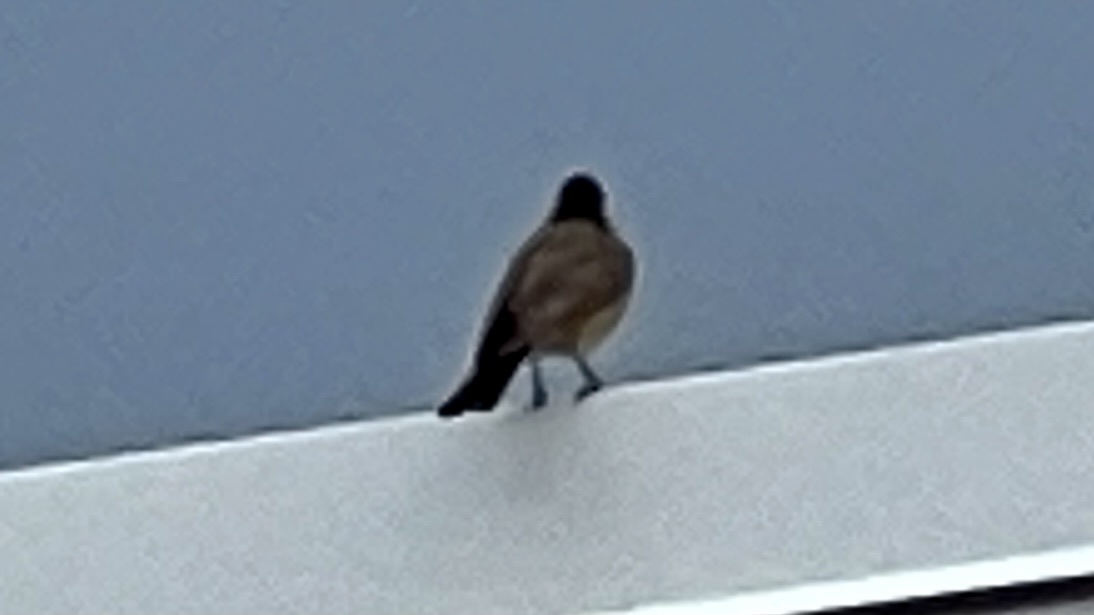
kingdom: Animalia
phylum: Chordata
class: Aves
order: Passeriformes
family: Tyrannidae
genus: Sayornis
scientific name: Sayornis saya
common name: Say's phoebe
